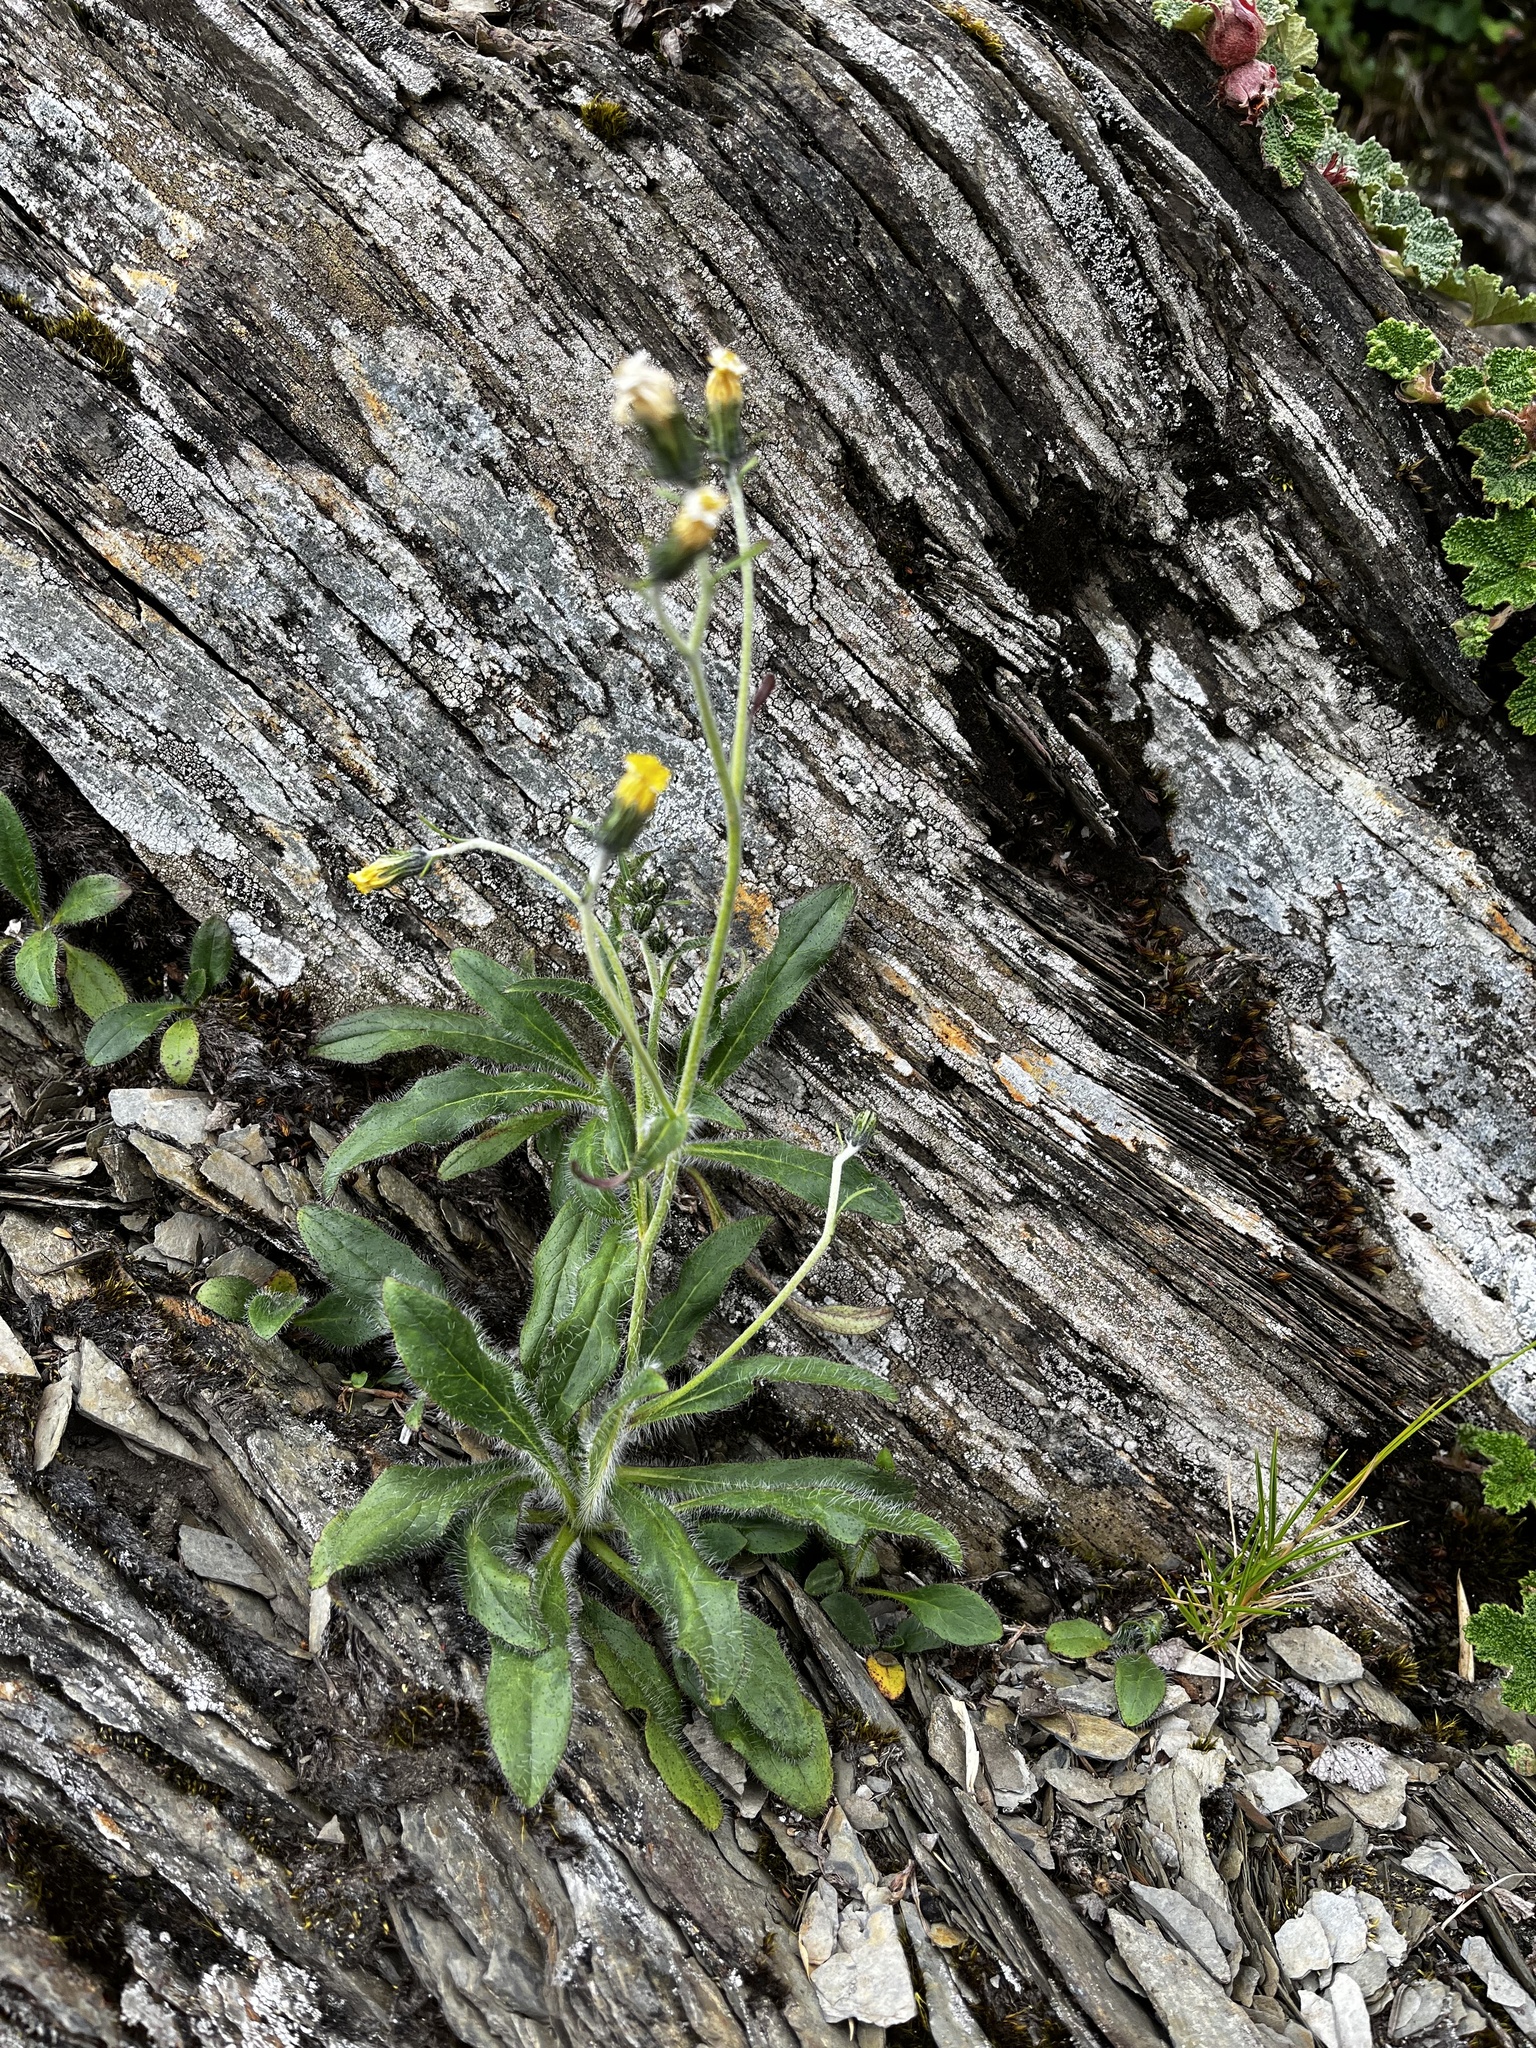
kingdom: Plantae
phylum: Tracheophyta
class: Magnoliopsida
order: Asterales
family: Asteraceae
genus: Hieracium
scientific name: Hieracium morii
